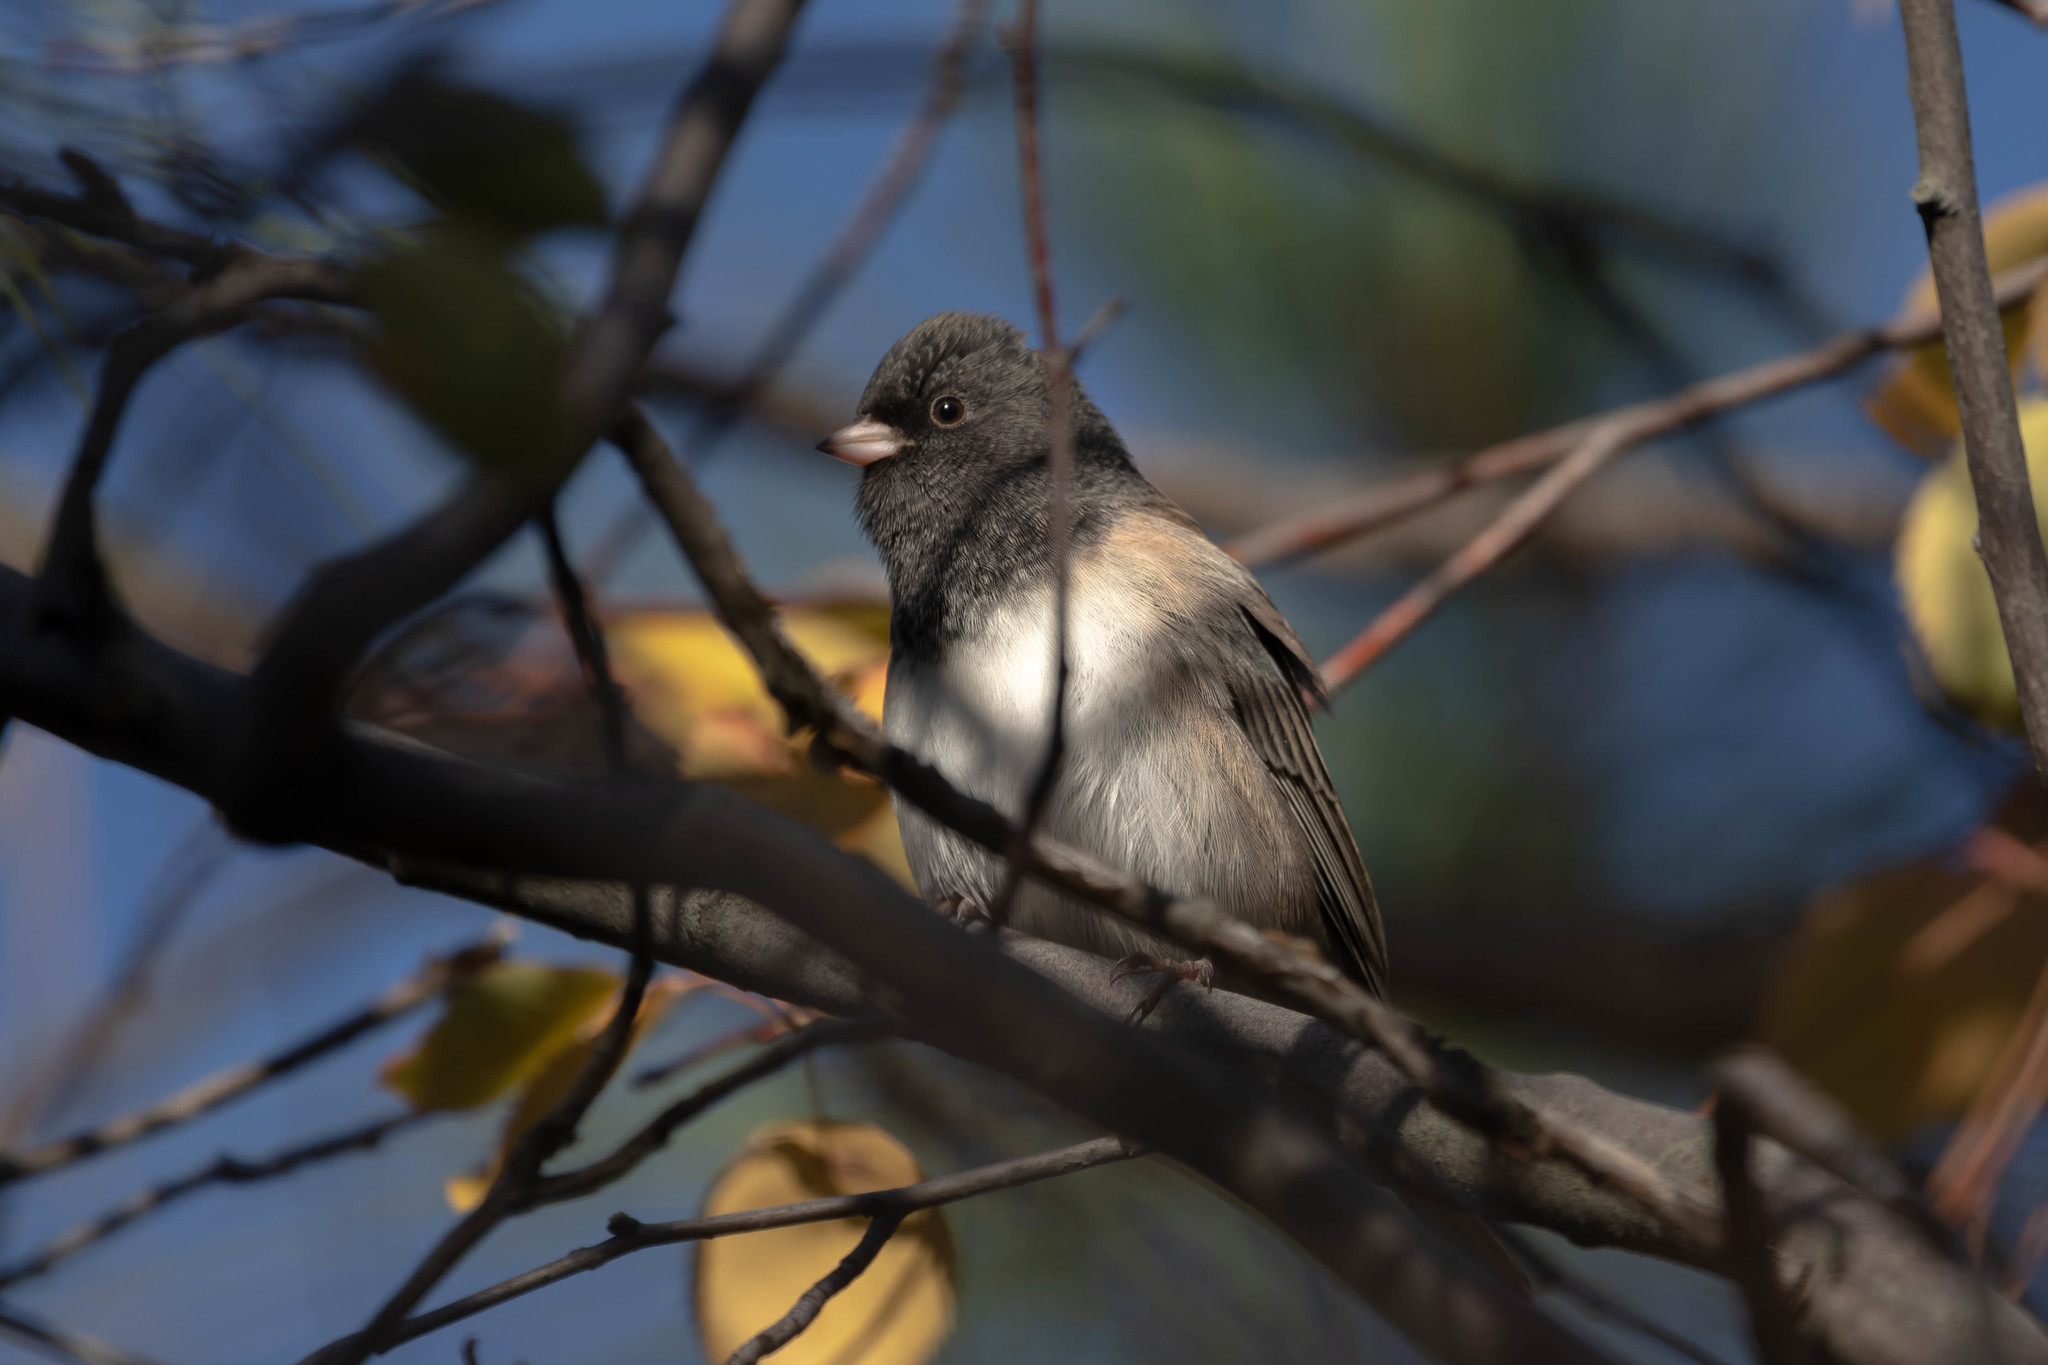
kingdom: Animalia
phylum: Chordata
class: Aves
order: Passeriformes
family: Passerellidae
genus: Junco
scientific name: Junco hyemalis
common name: Dark-eyed junco
